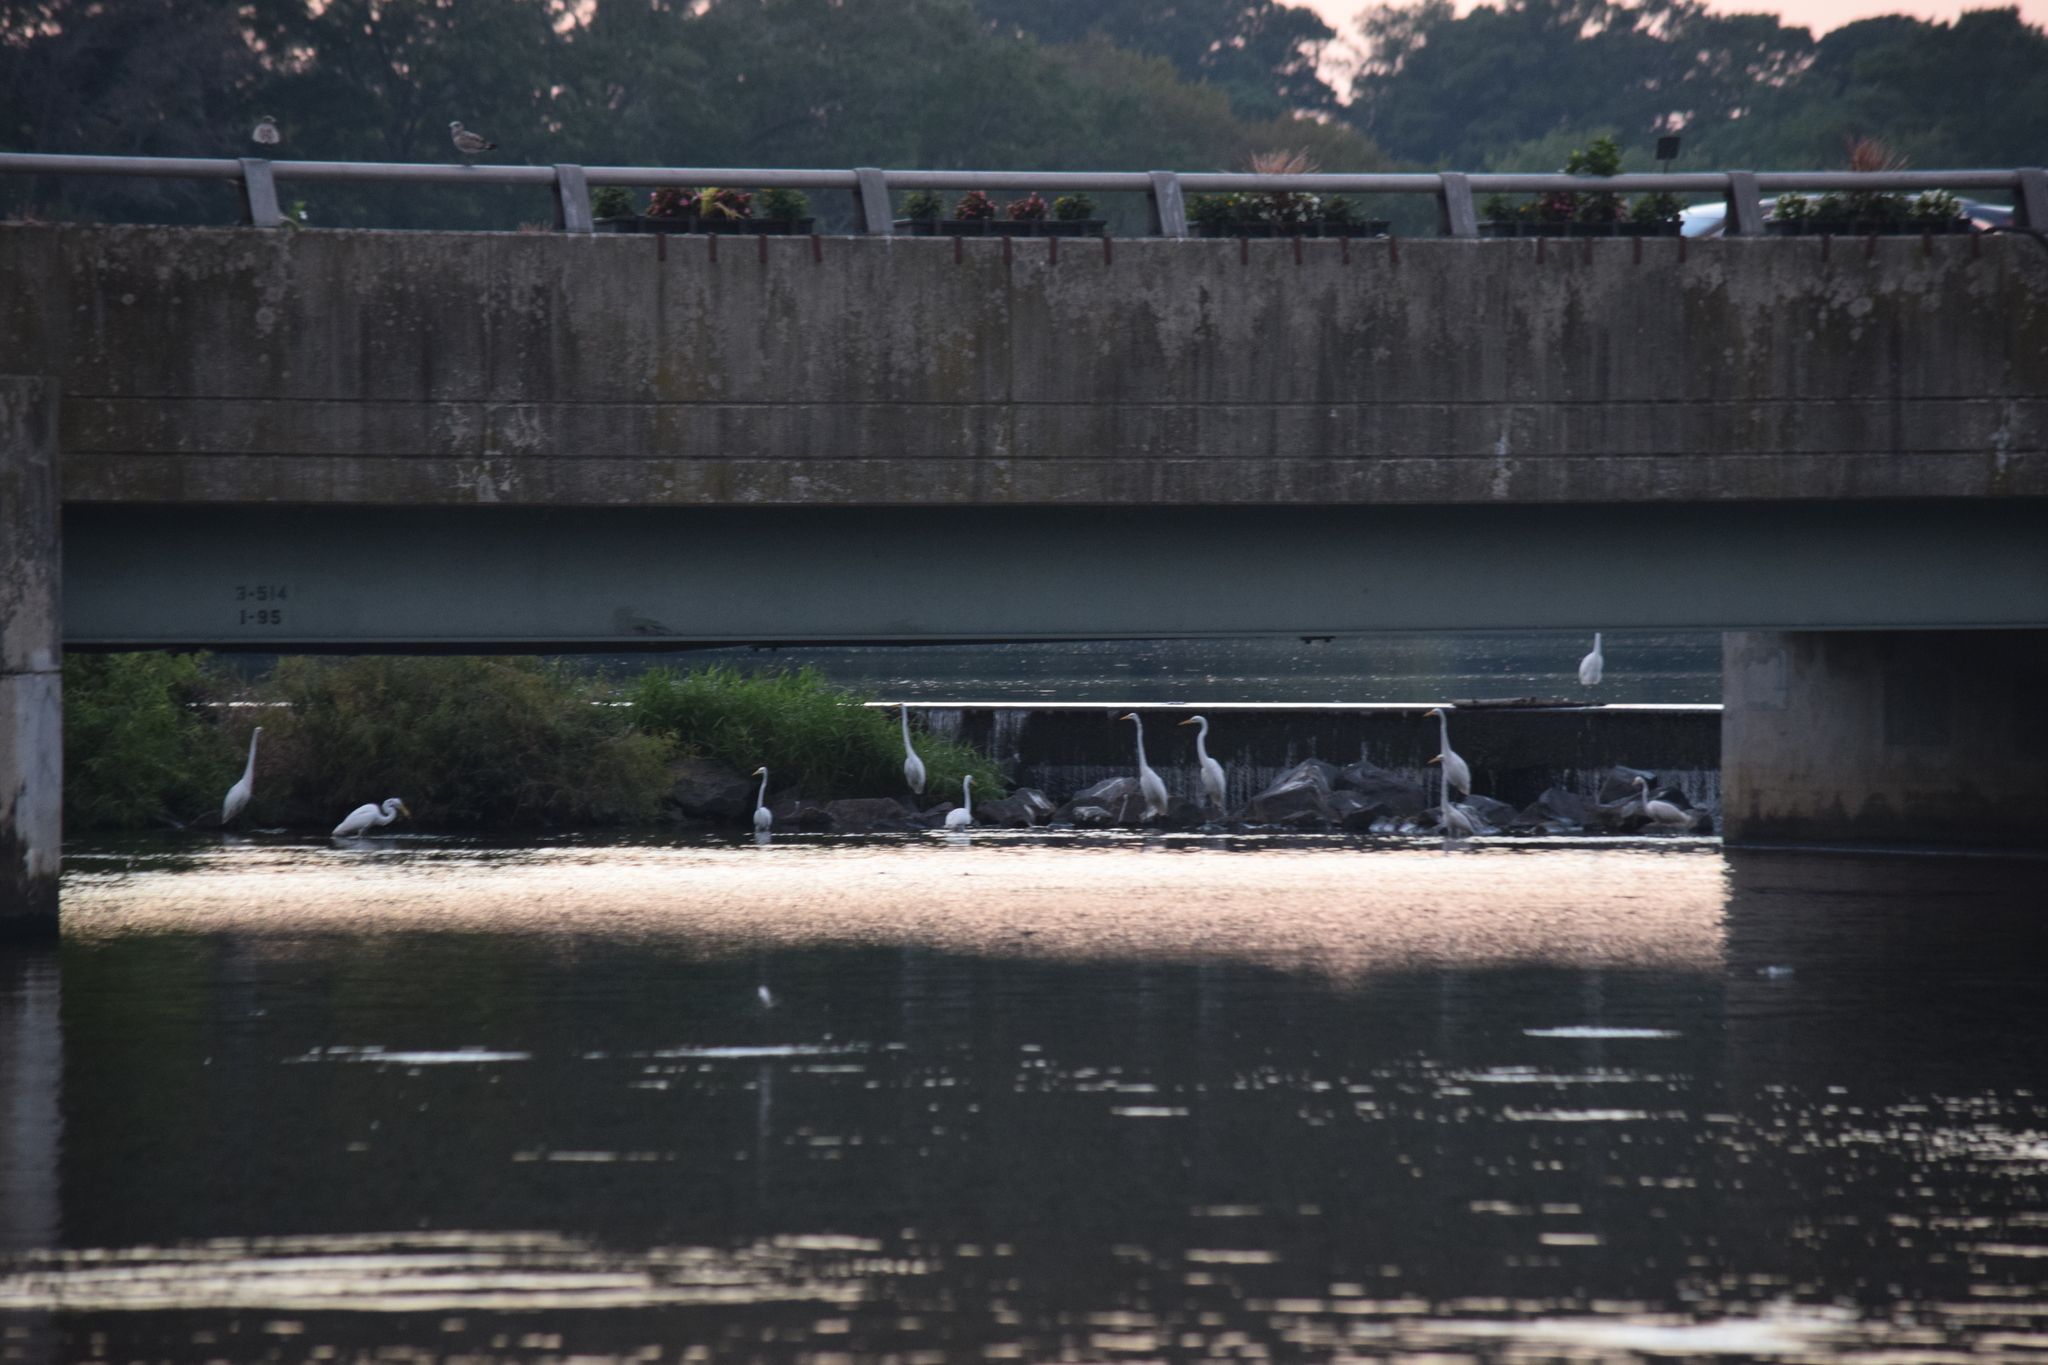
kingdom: Animalia
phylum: Chordata
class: Aves
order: Pelecaniformes
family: Ardeidae
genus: Ardea
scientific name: Ardea alba
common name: Great egret
